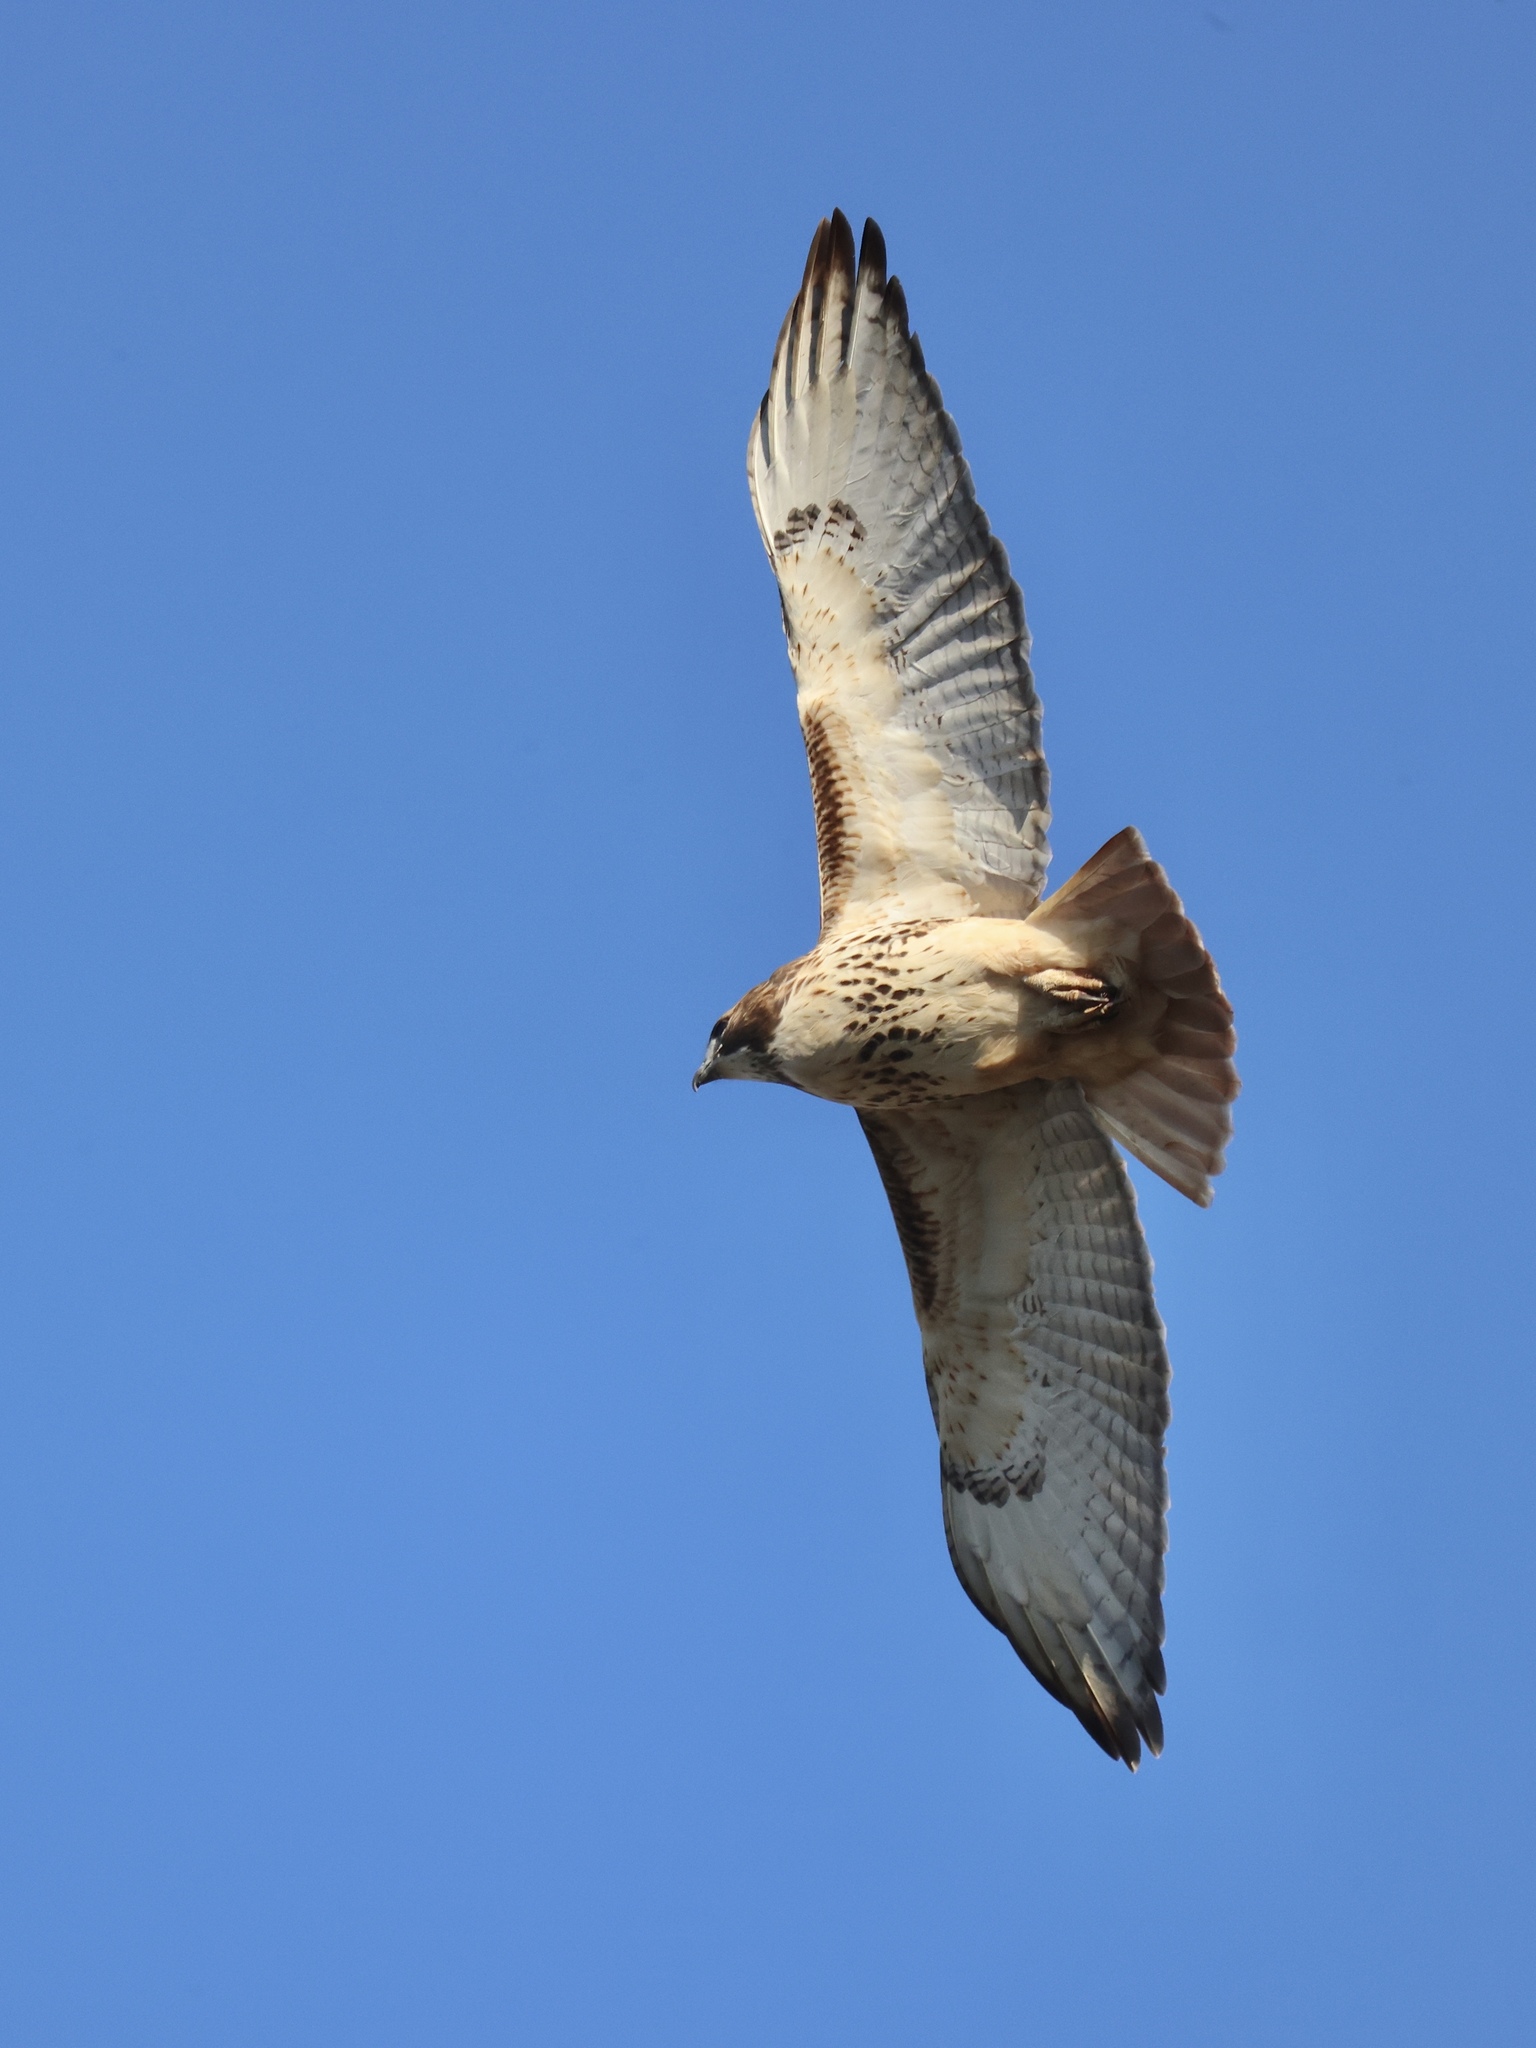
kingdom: Animalia
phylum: Chordata
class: Aves
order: Accipitriformes
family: Accipitridae
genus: Buteo
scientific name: Buteo jamaicensis
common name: Red-tailed hawk
